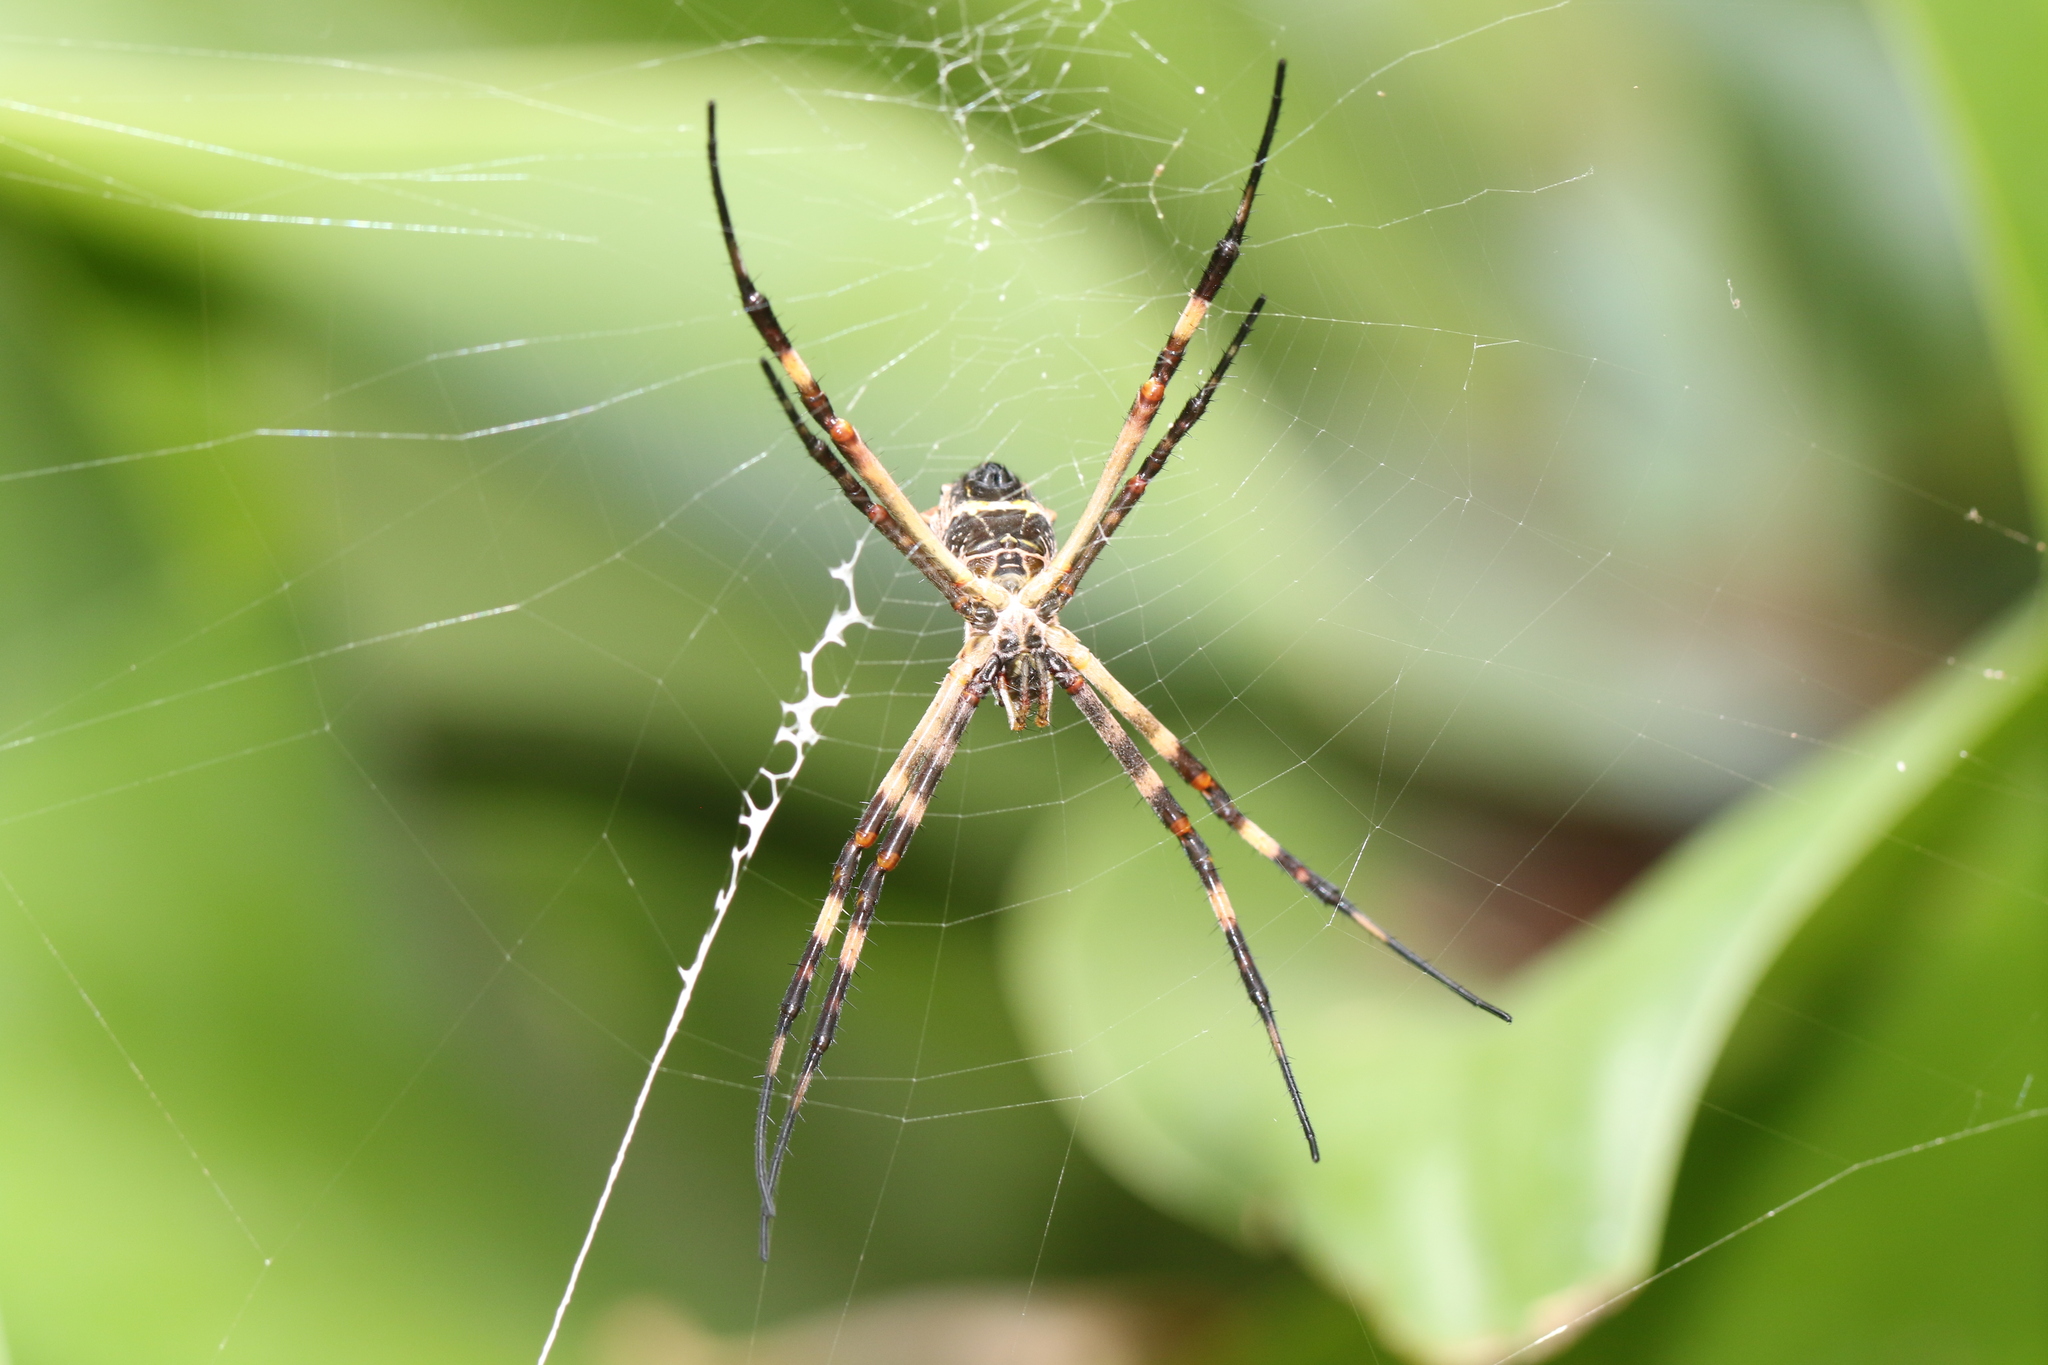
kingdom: Animalia
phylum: Arthropoda
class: Arachnida
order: Araneae
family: Araneidae
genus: Argiope
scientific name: Argiope argentata
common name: Orb weavers
